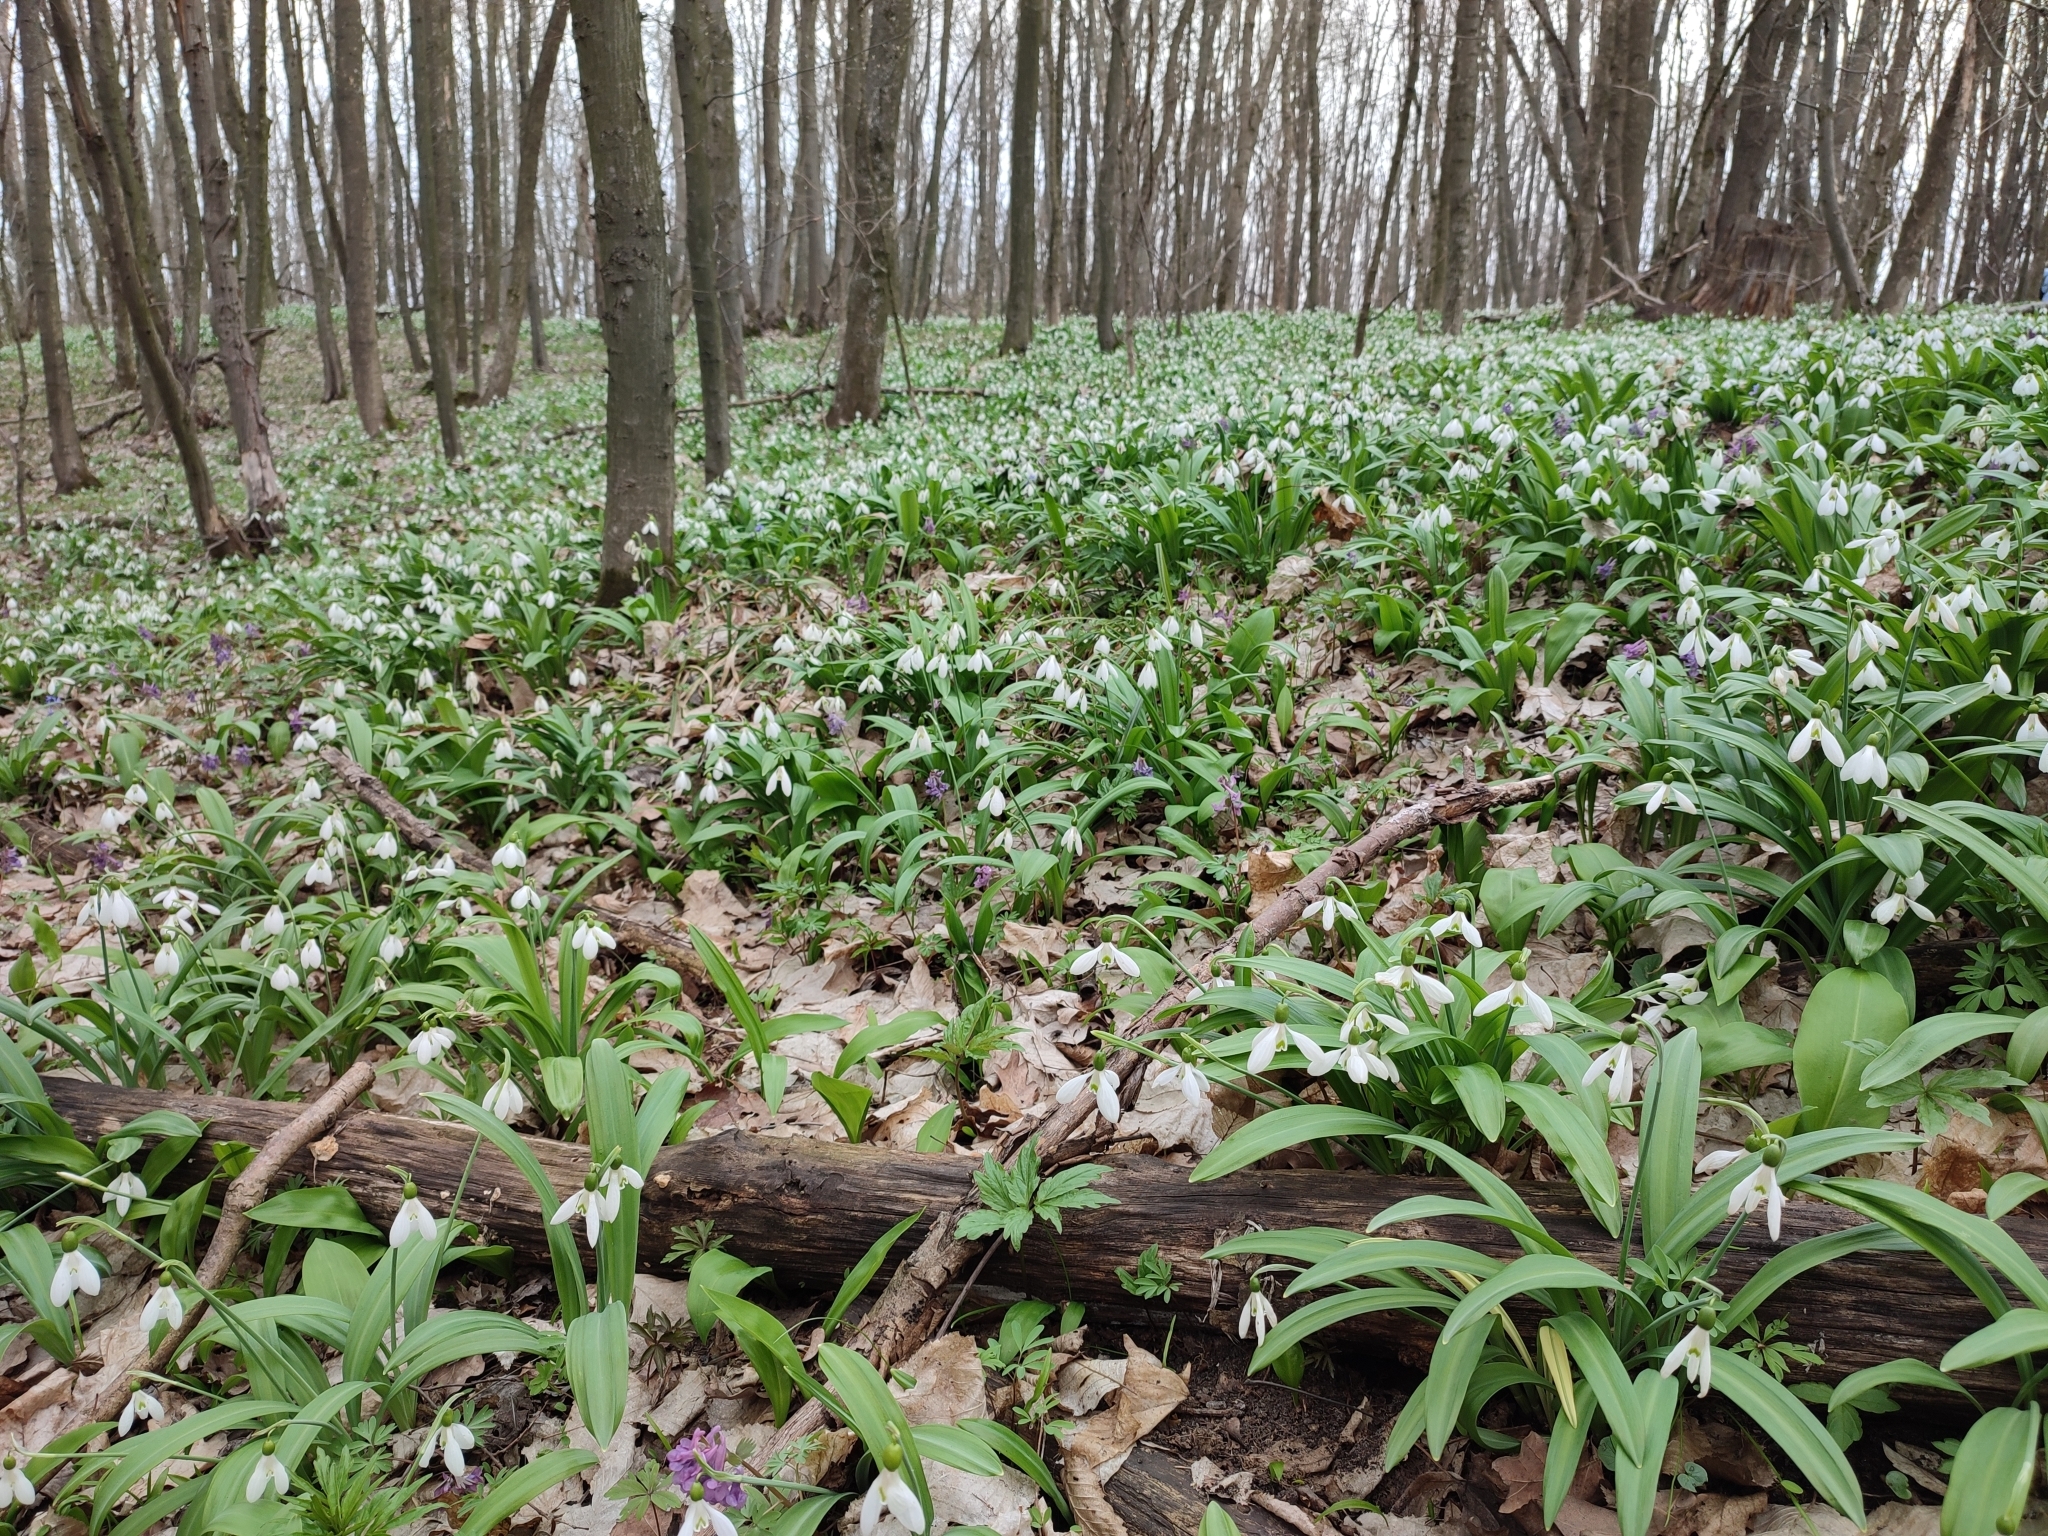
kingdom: Plantae
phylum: Tracheophyta
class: Liliopsida
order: Asparagales
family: Amaryllidaceae
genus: Galanthus
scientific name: Galanthus plicatus
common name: Pleated snowdrop
